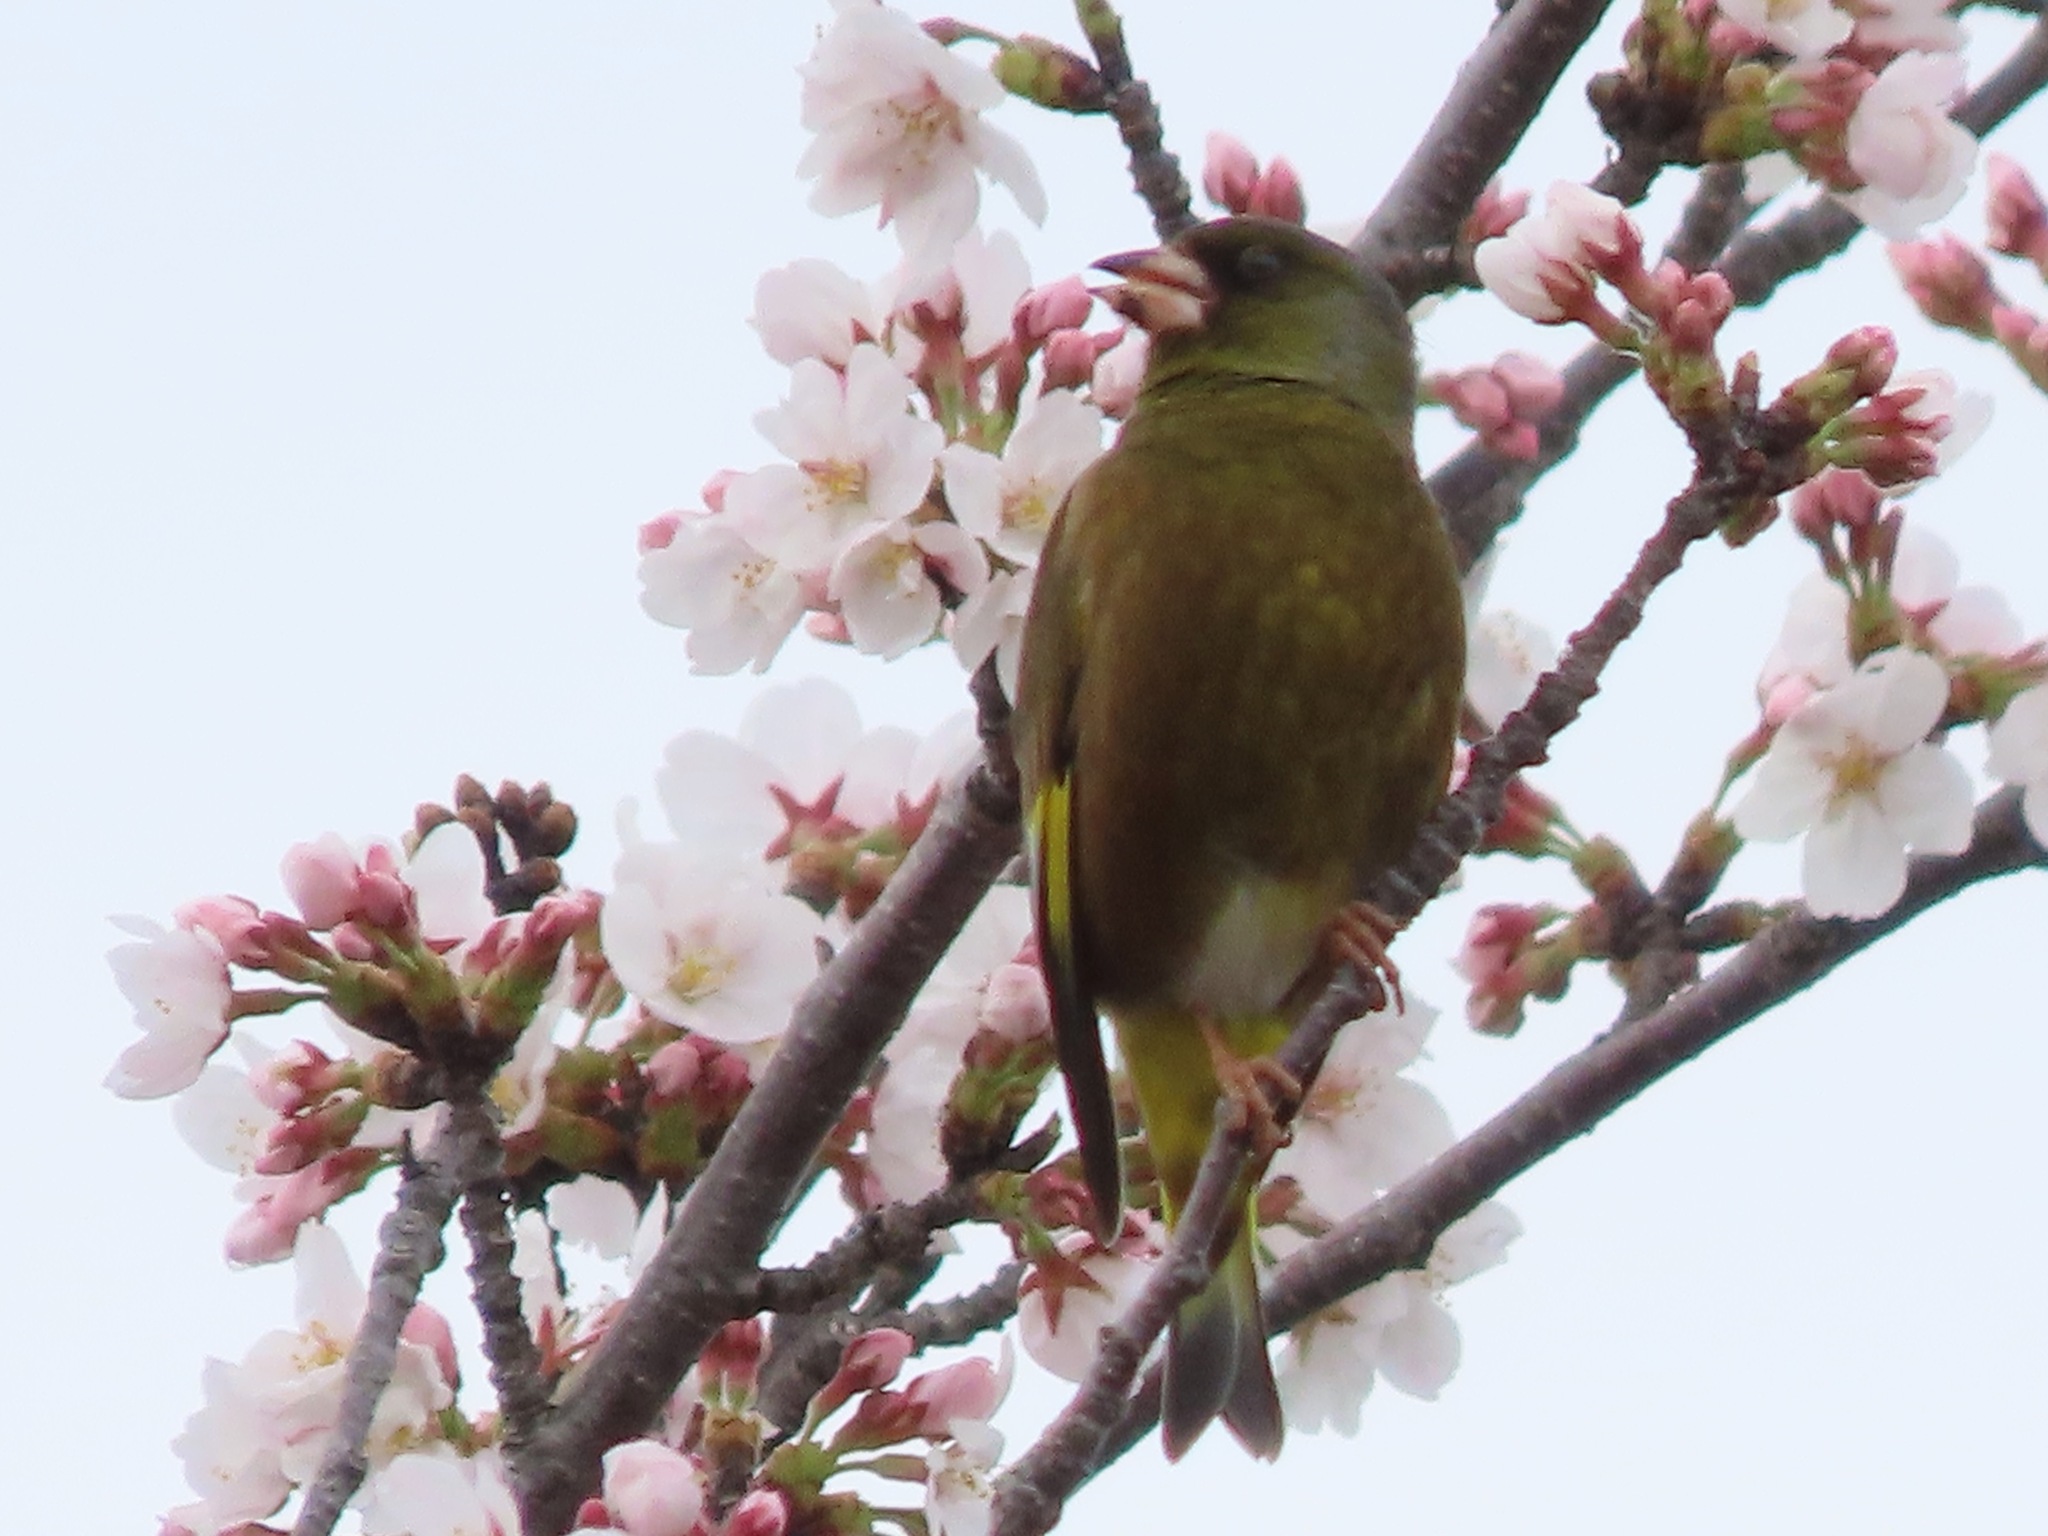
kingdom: Plantae
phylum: Tracheophyta
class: Liliopsida
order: Poales
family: Poaceae
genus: Chloris
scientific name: Chloris sinica
